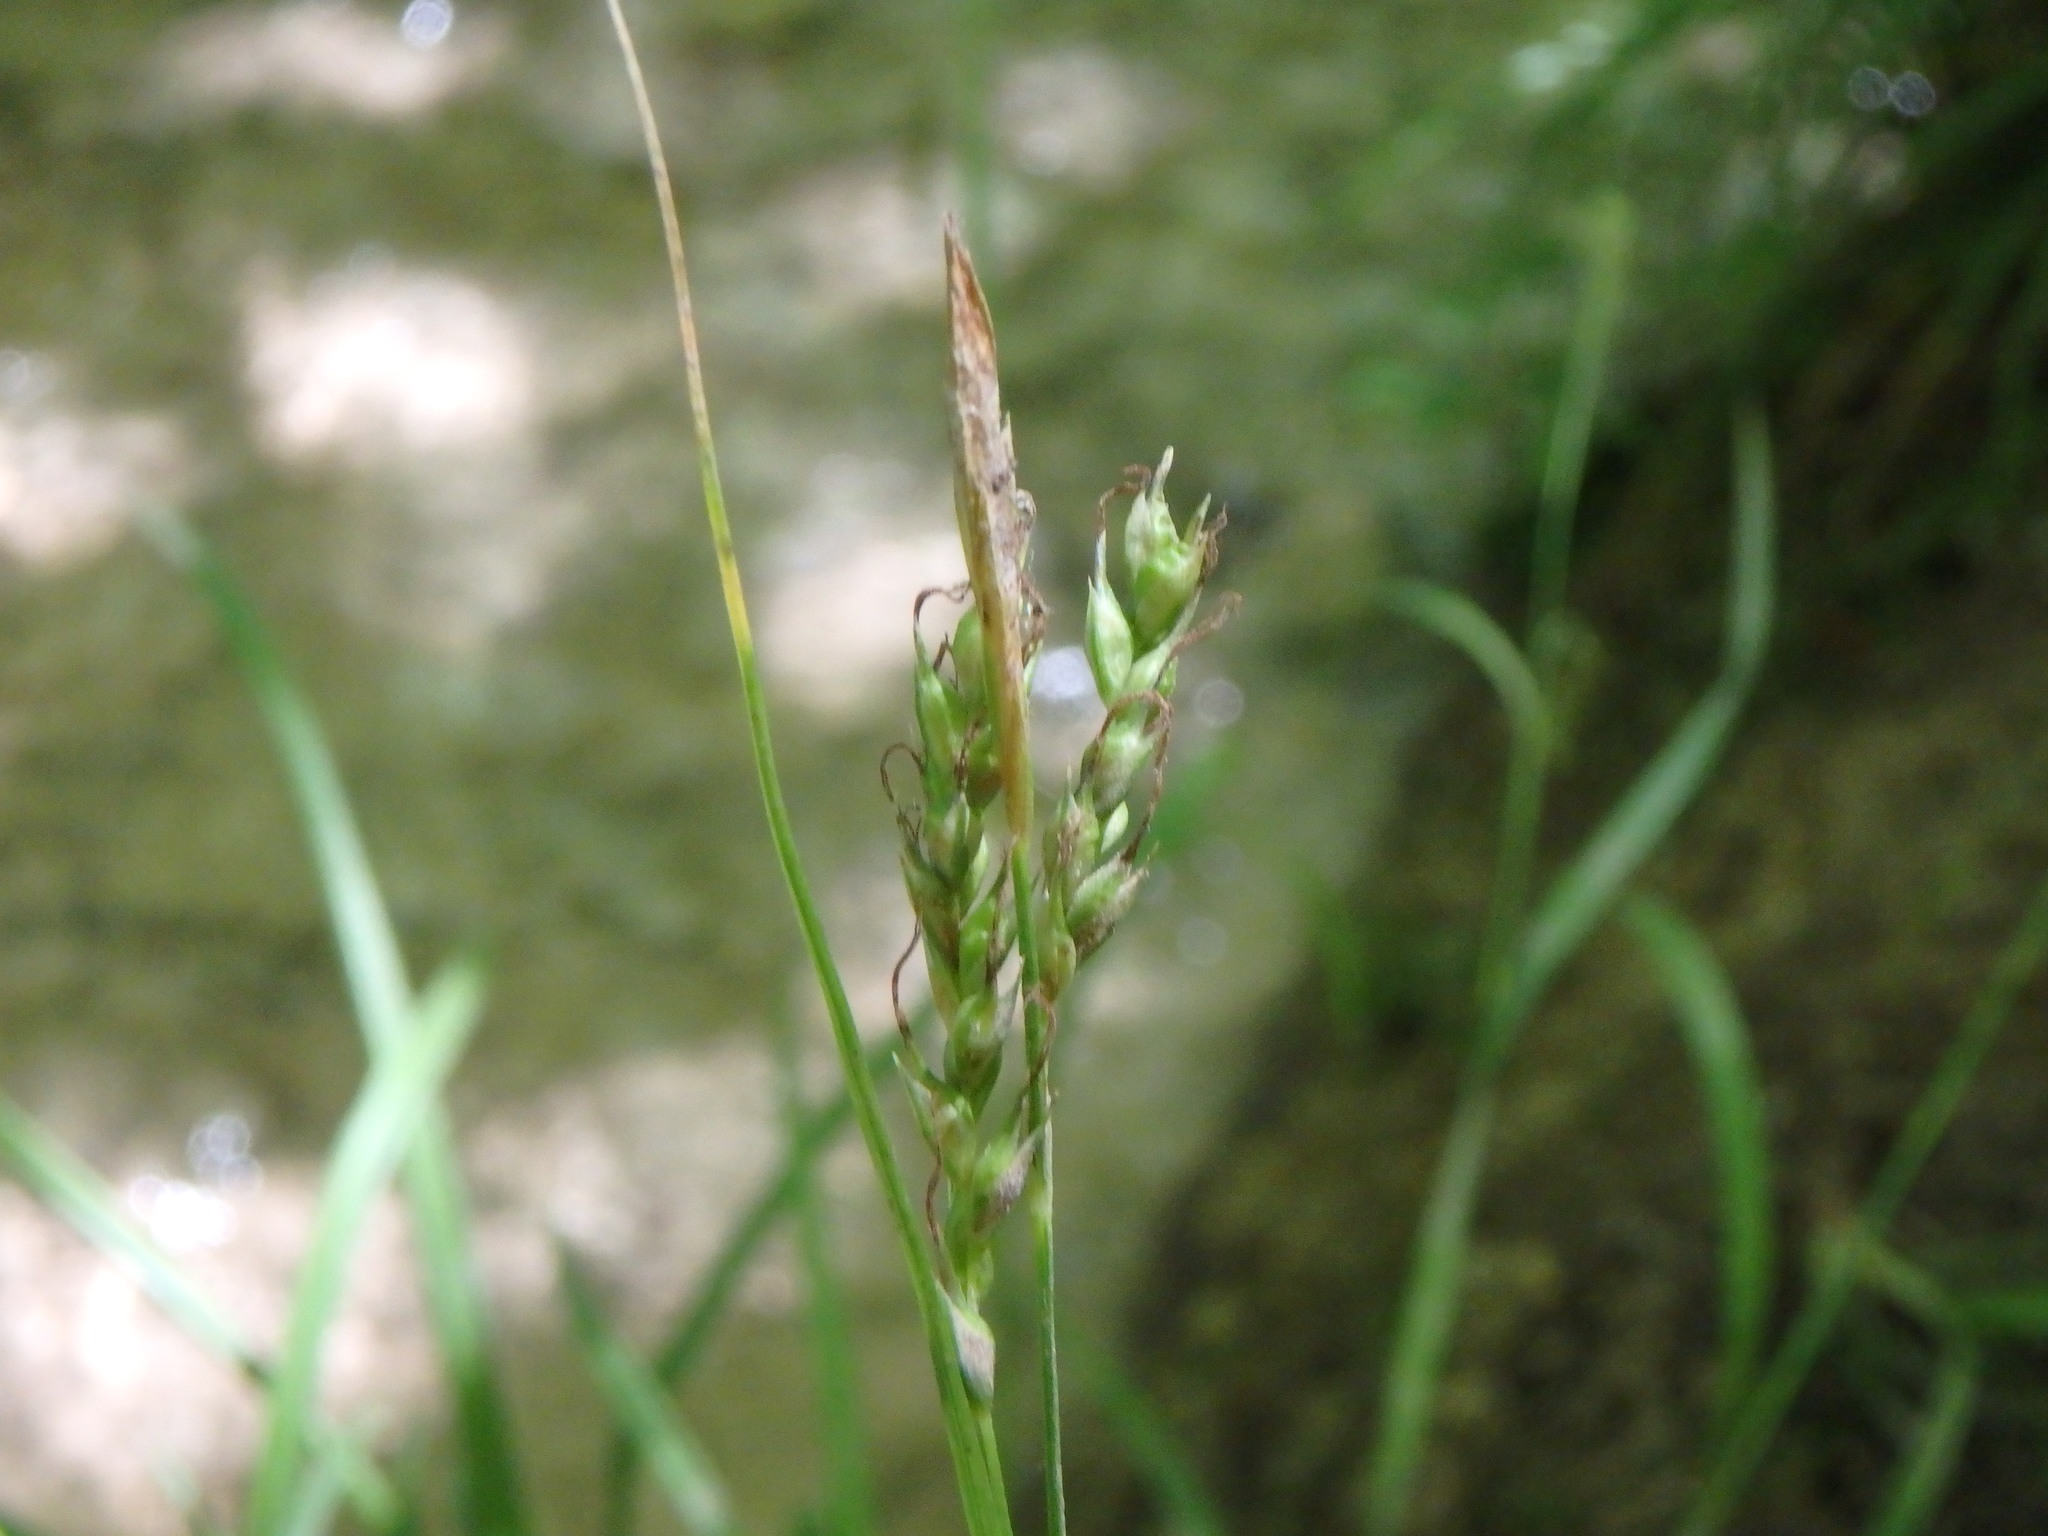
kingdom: Plantae
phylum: Tracheophyta
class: Liliopsida
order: Poales
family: Cyperaceae
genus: Carex
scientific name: Carex sylvatica
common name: Wood-sedge
